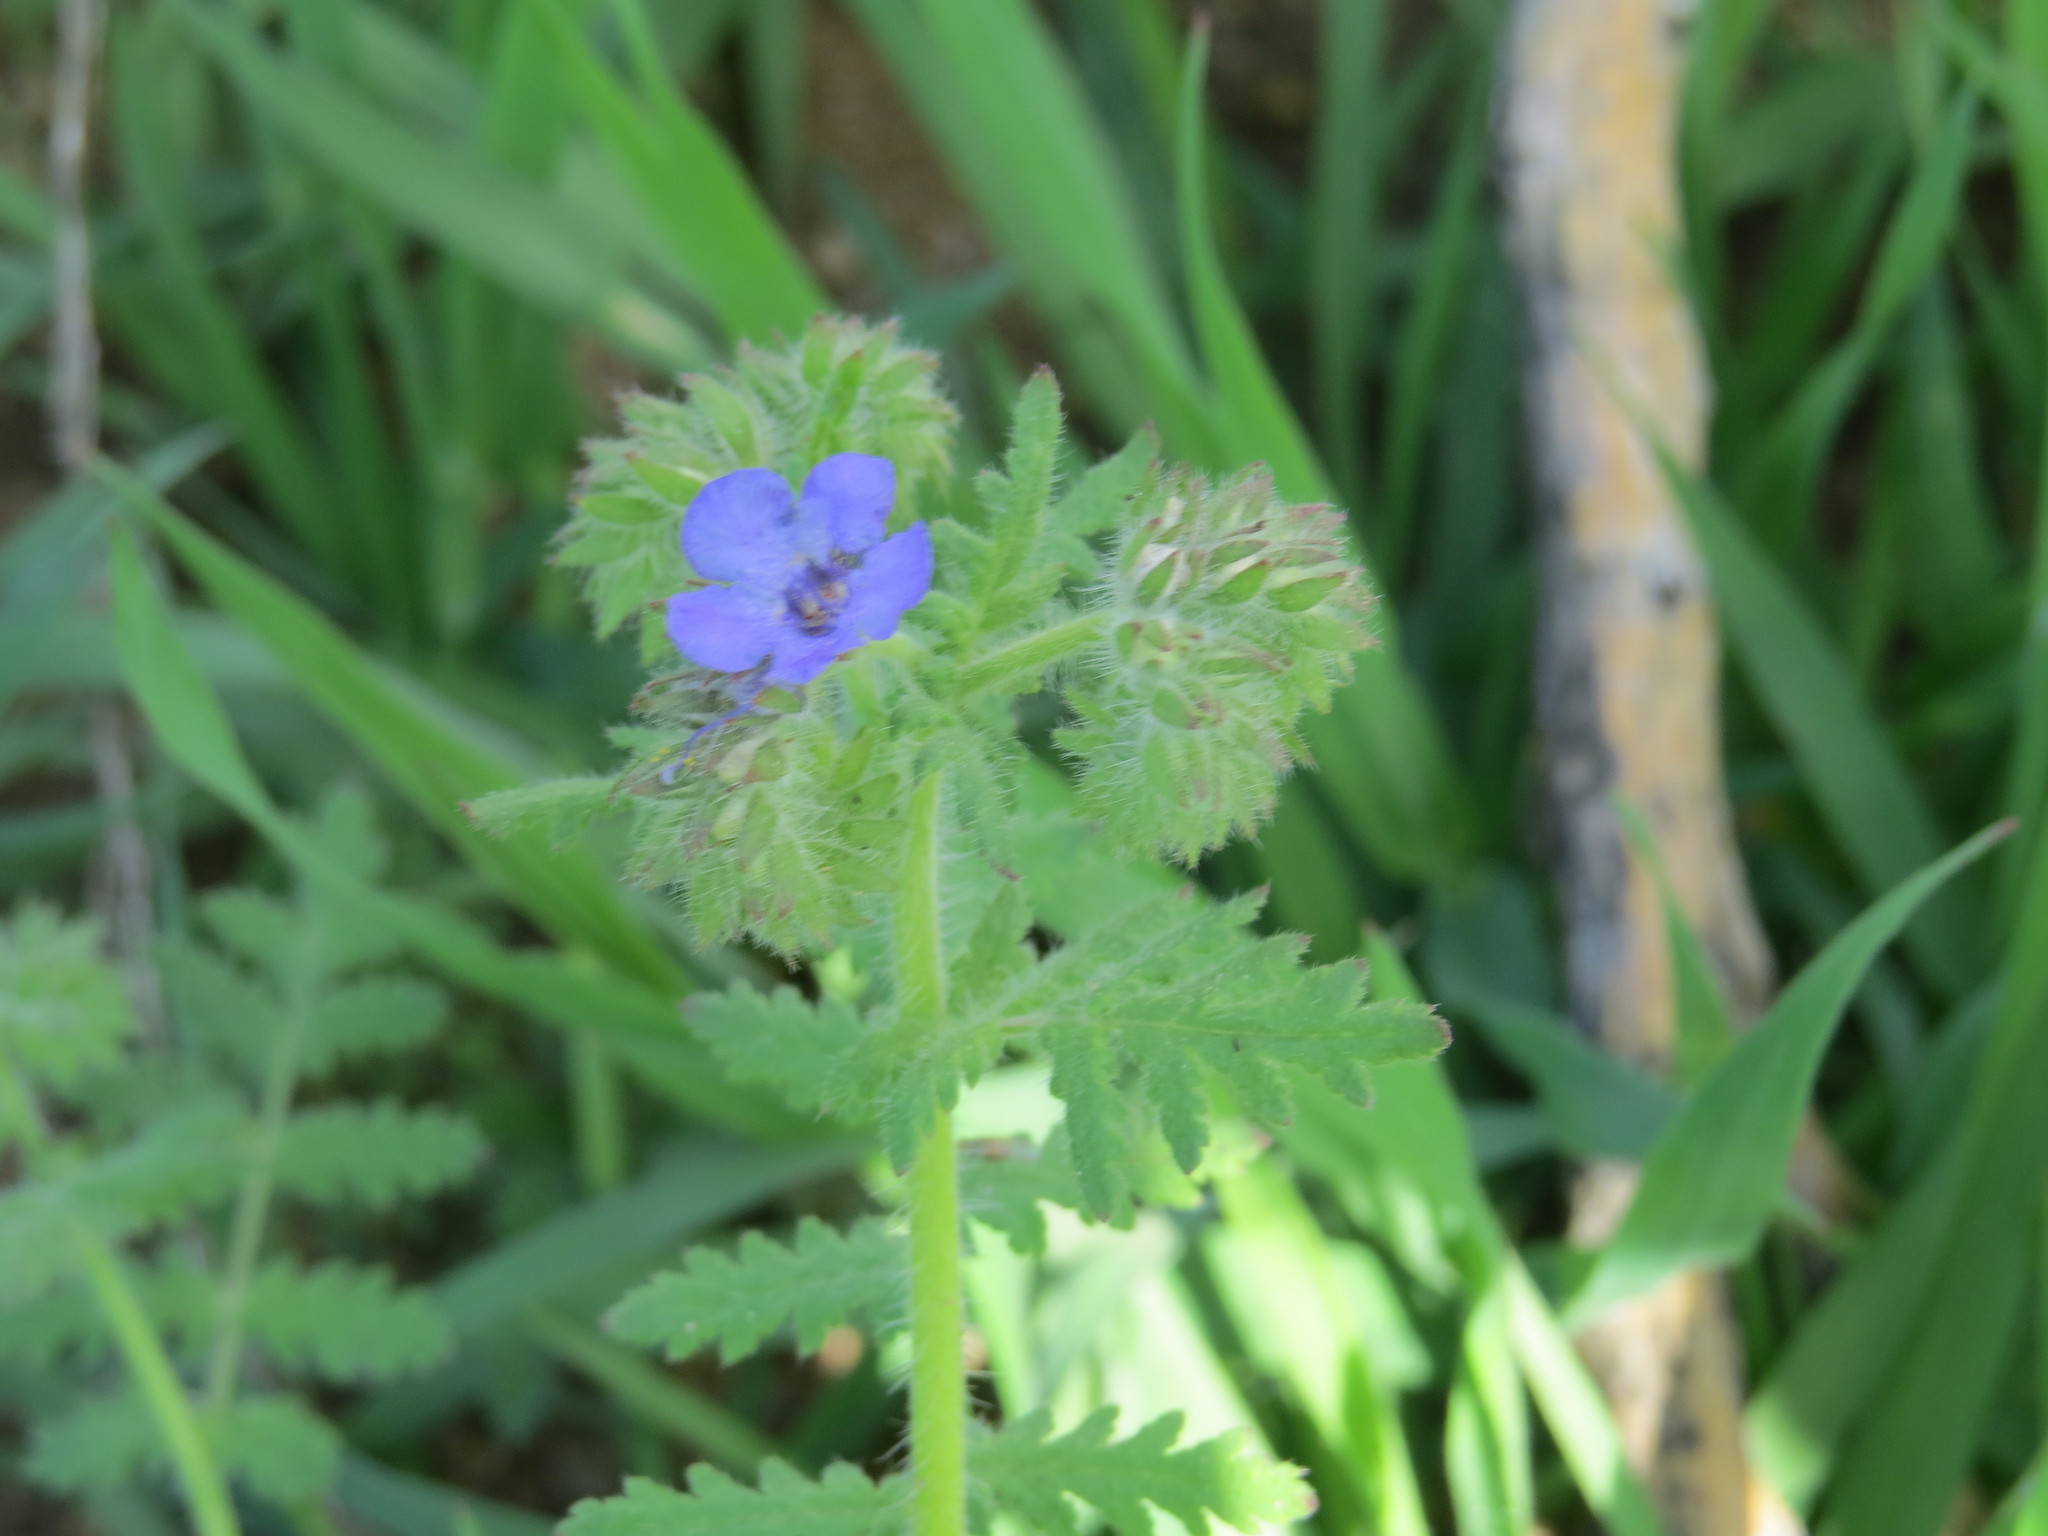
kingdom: Plantae
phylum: Tracheophyta
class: Magnoliopsida
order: Boraginales
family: Hydrophyllaceae
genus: Phacelia
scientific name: Phacelia distans
